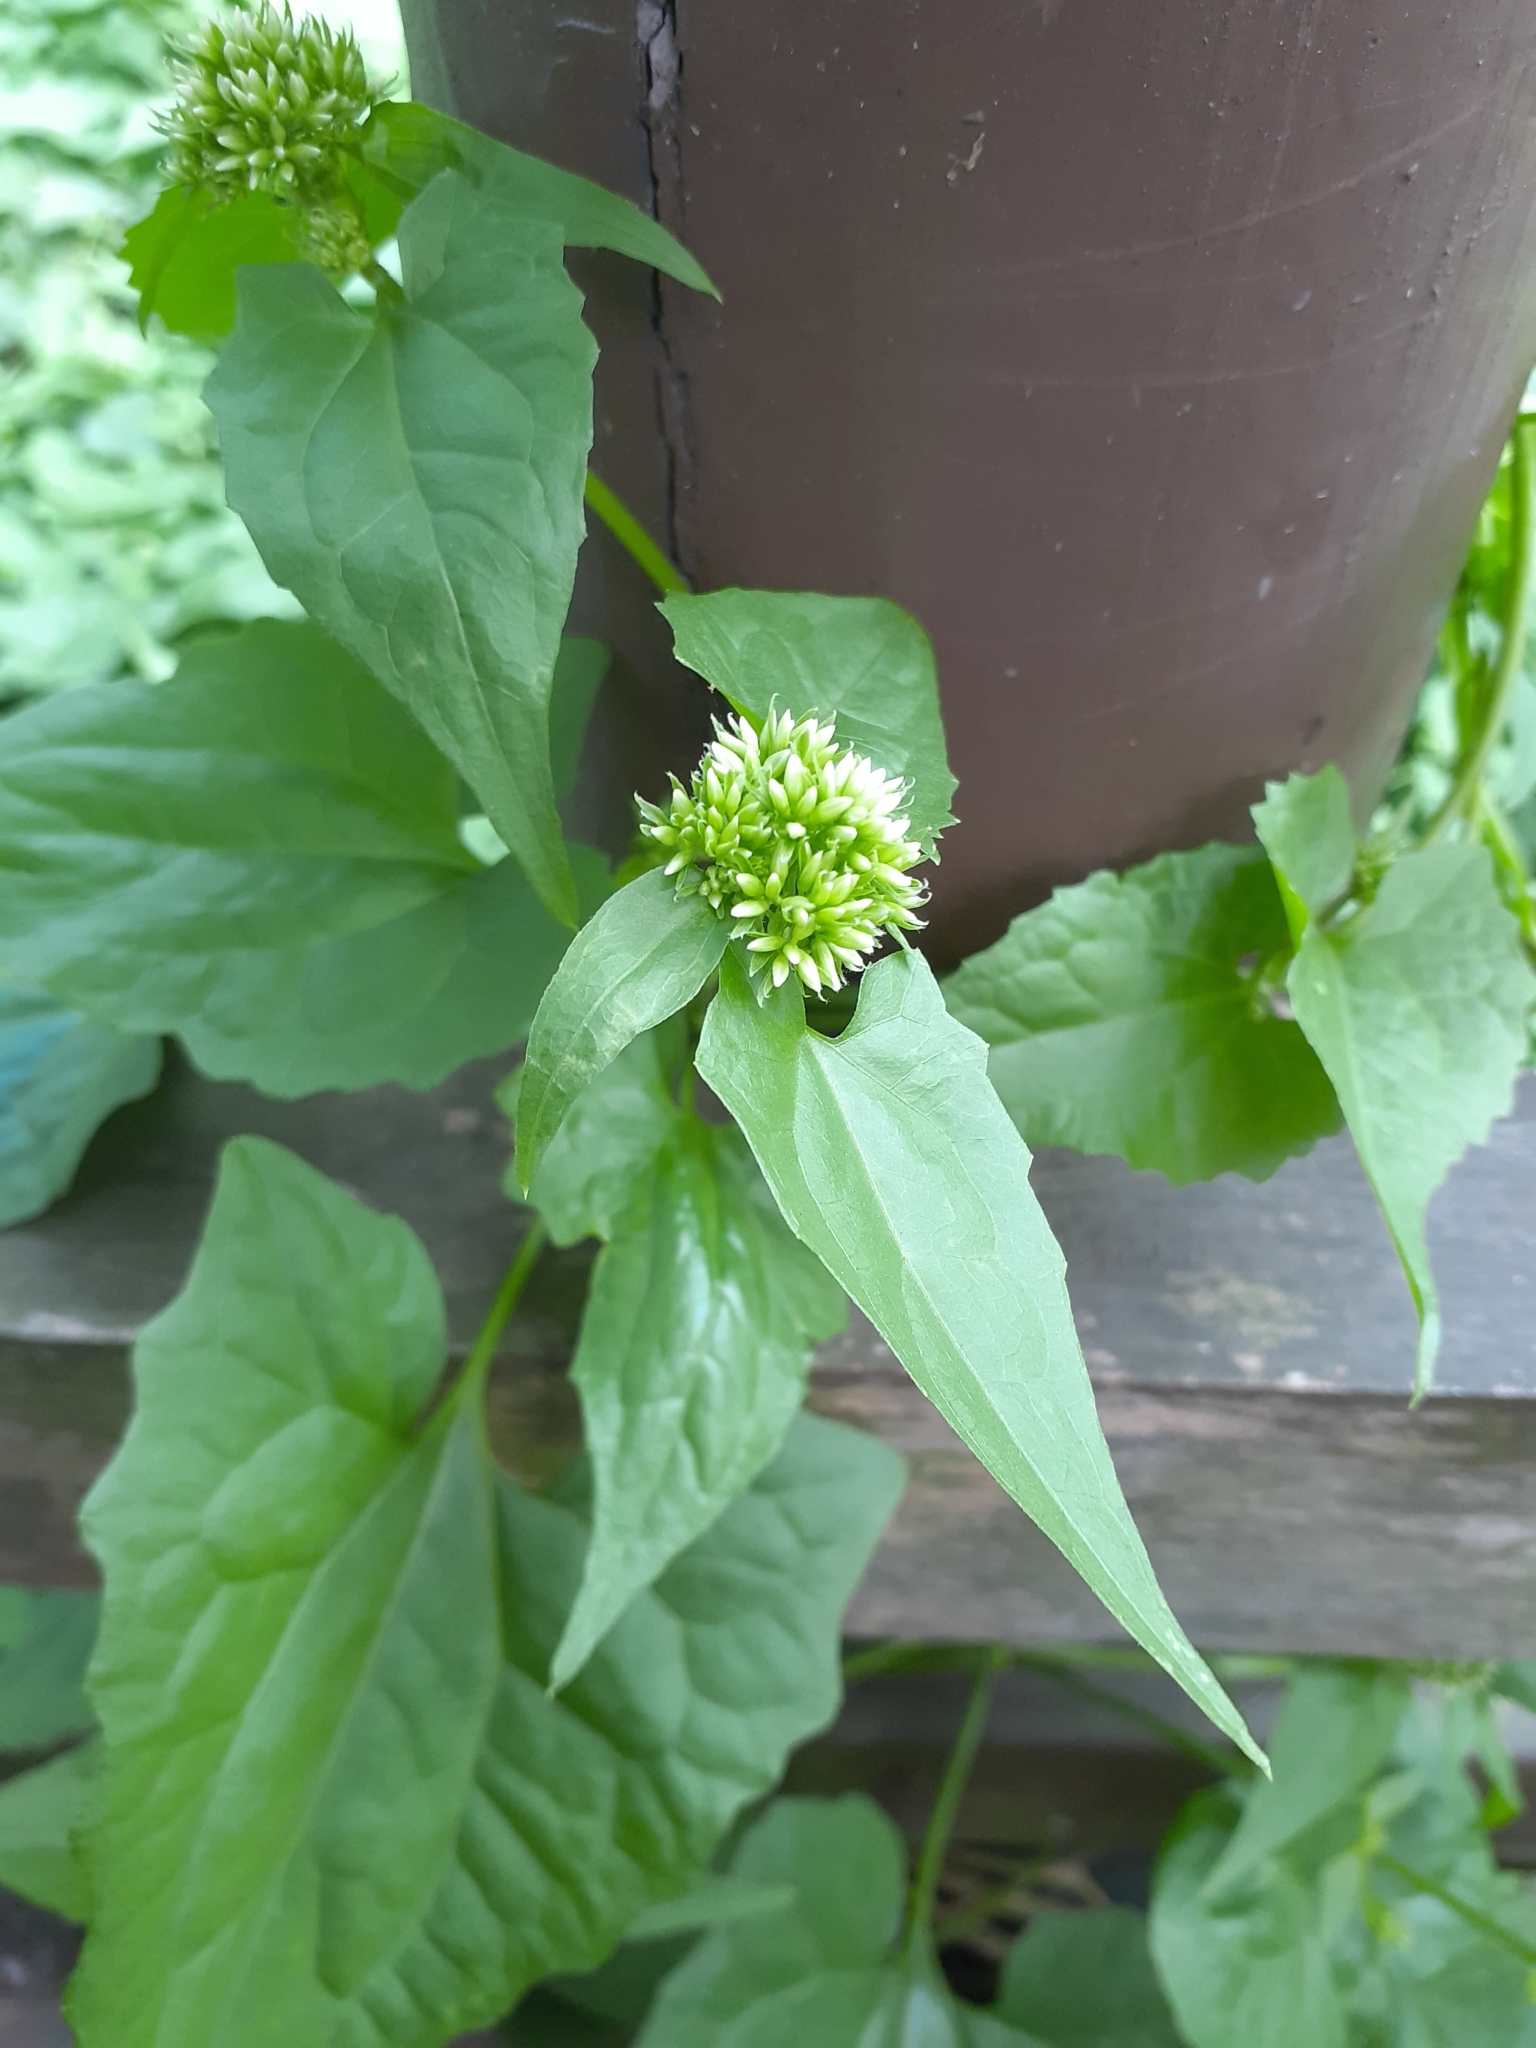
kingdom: Plantae
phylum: Tracheophyta
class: Magnoliopsida
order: Asterales
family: Asteraceae
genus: Mikania
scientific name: Mikania micrantha
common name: Mile-a-minute
